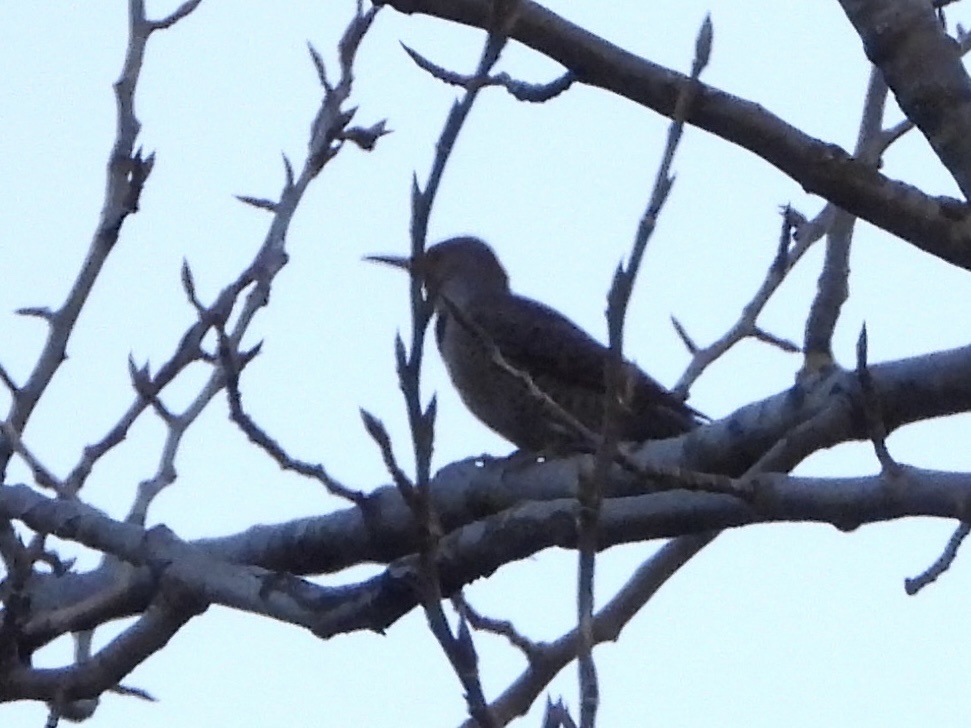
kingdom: Animalia
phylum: Chordata
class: Aves
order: Piciformes
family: Picidae
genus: Colaptes
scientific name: Colaptes auratus
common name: Northern flicker
